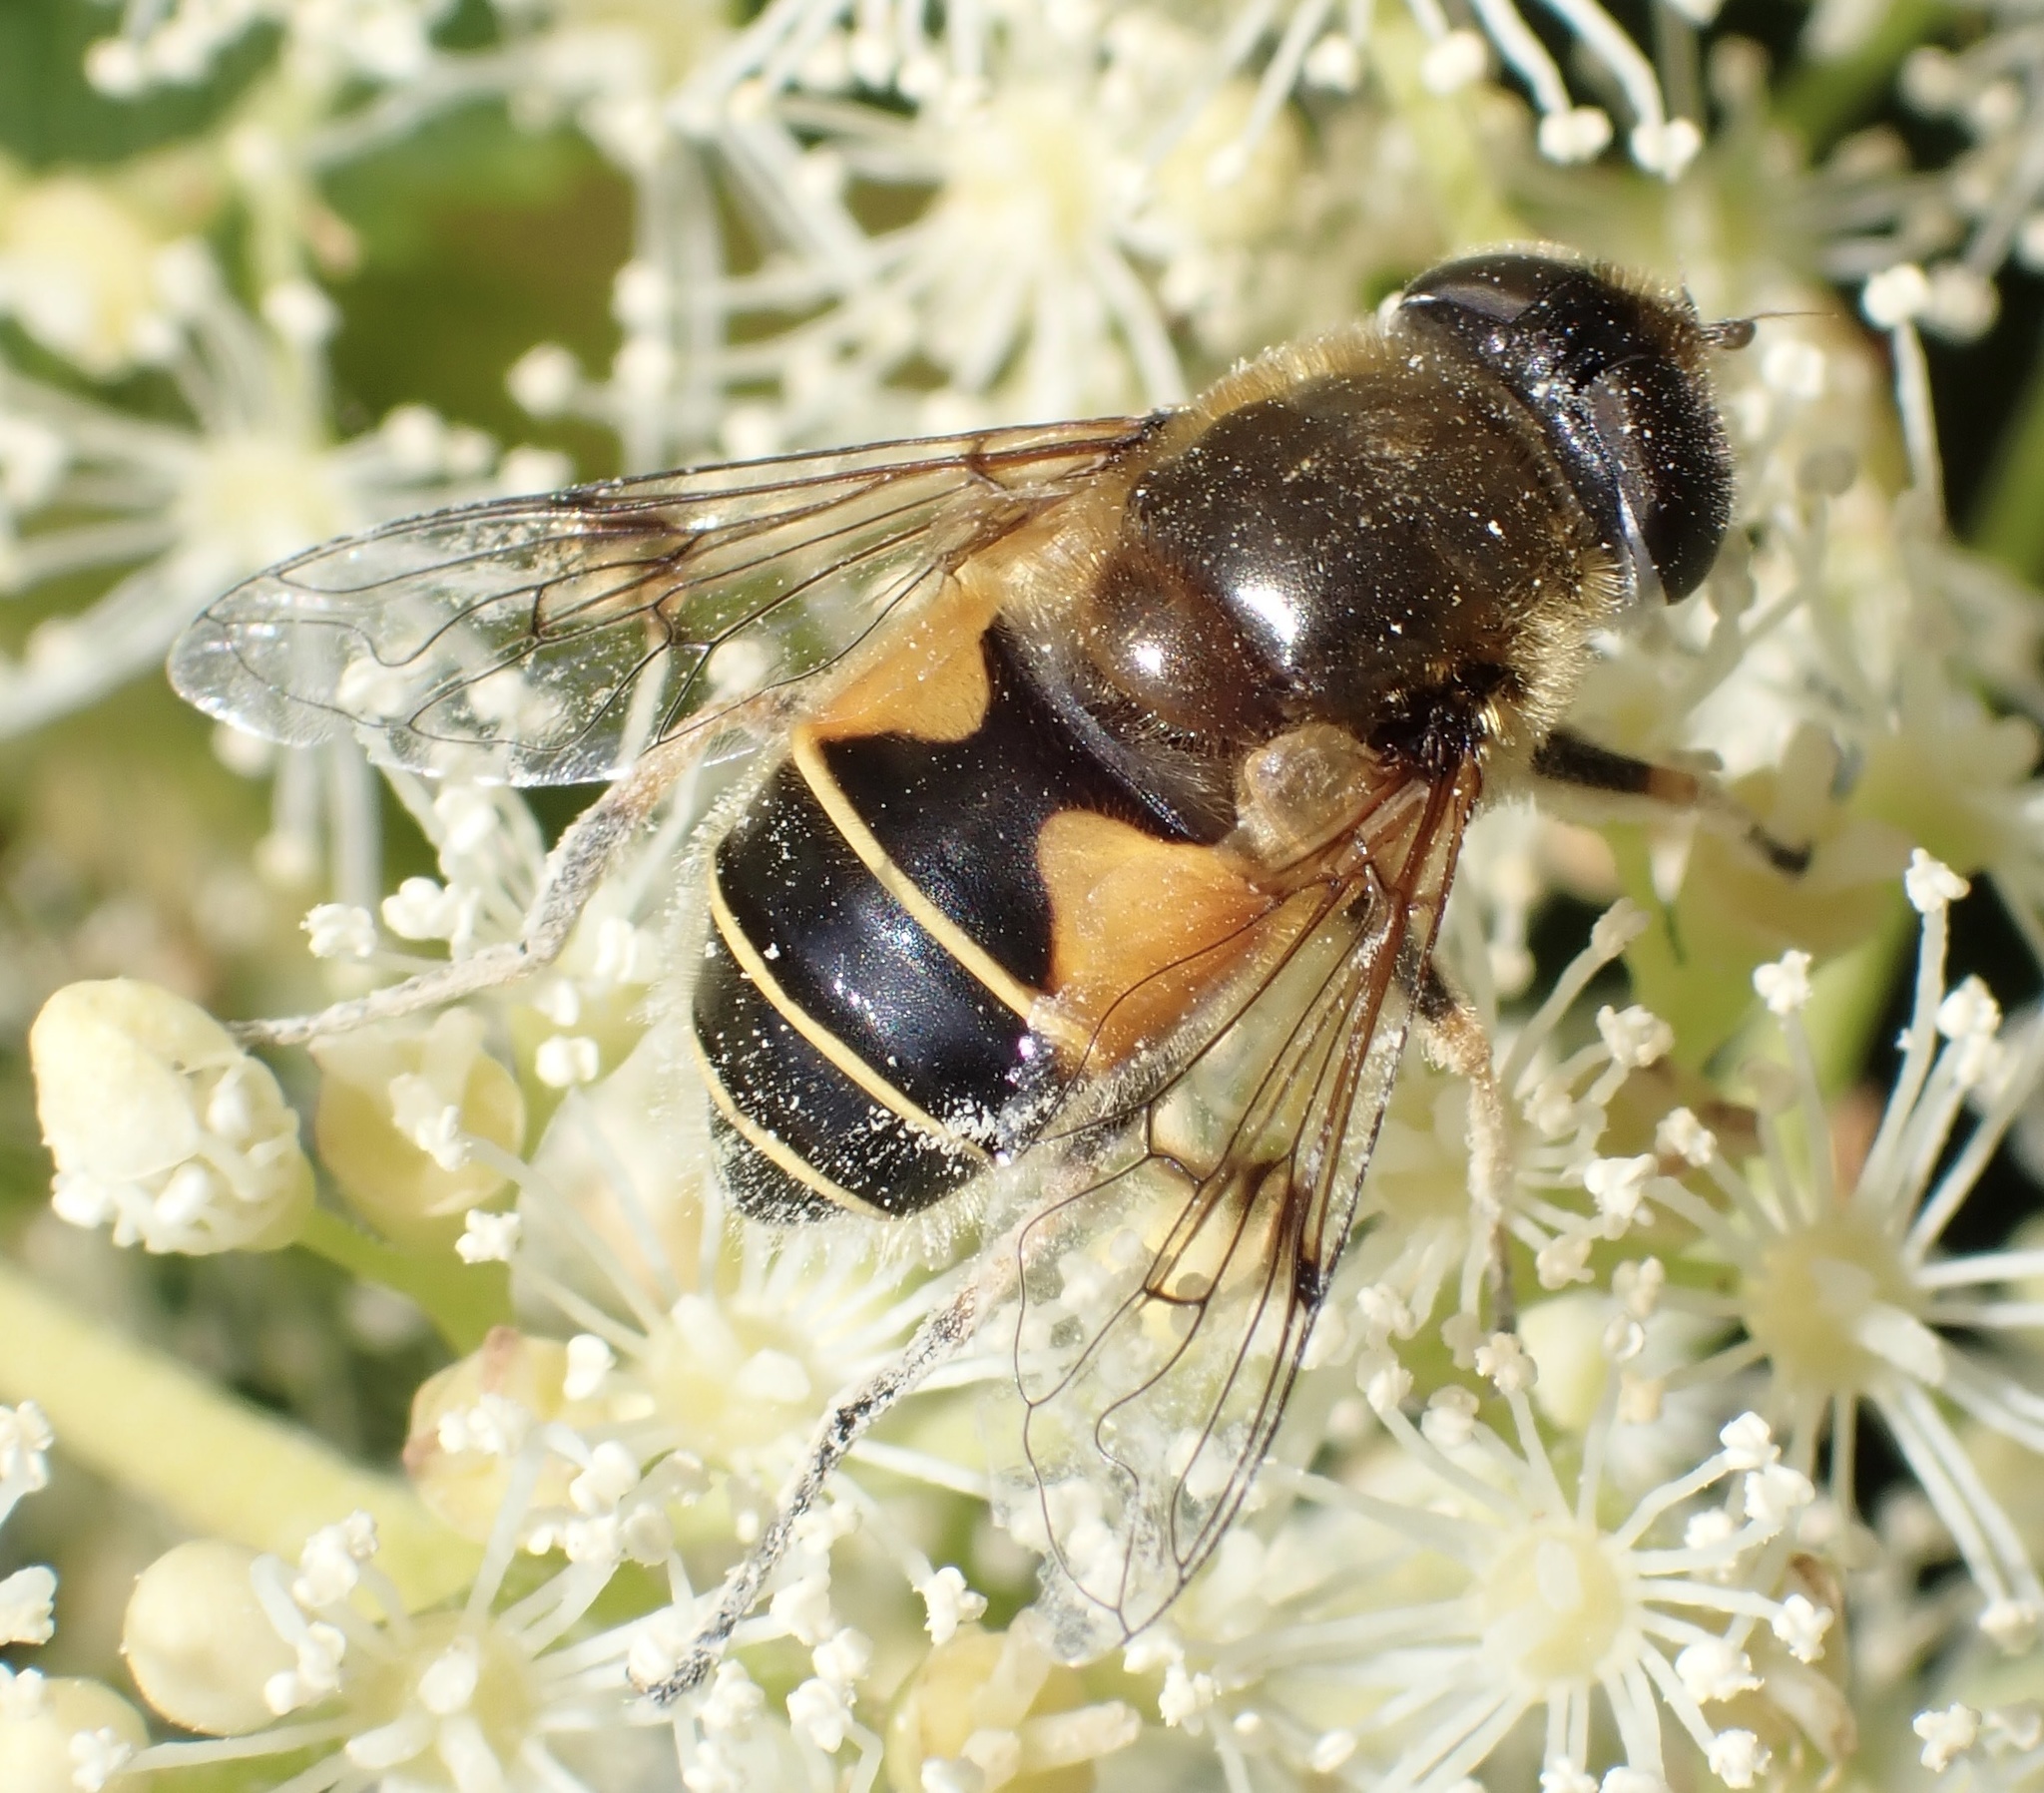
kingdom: Animalia
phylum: Arthropoda
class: Insecta
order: Diptera
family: Syrphidae
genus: Cheilosia
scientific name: Cheilosia morio
